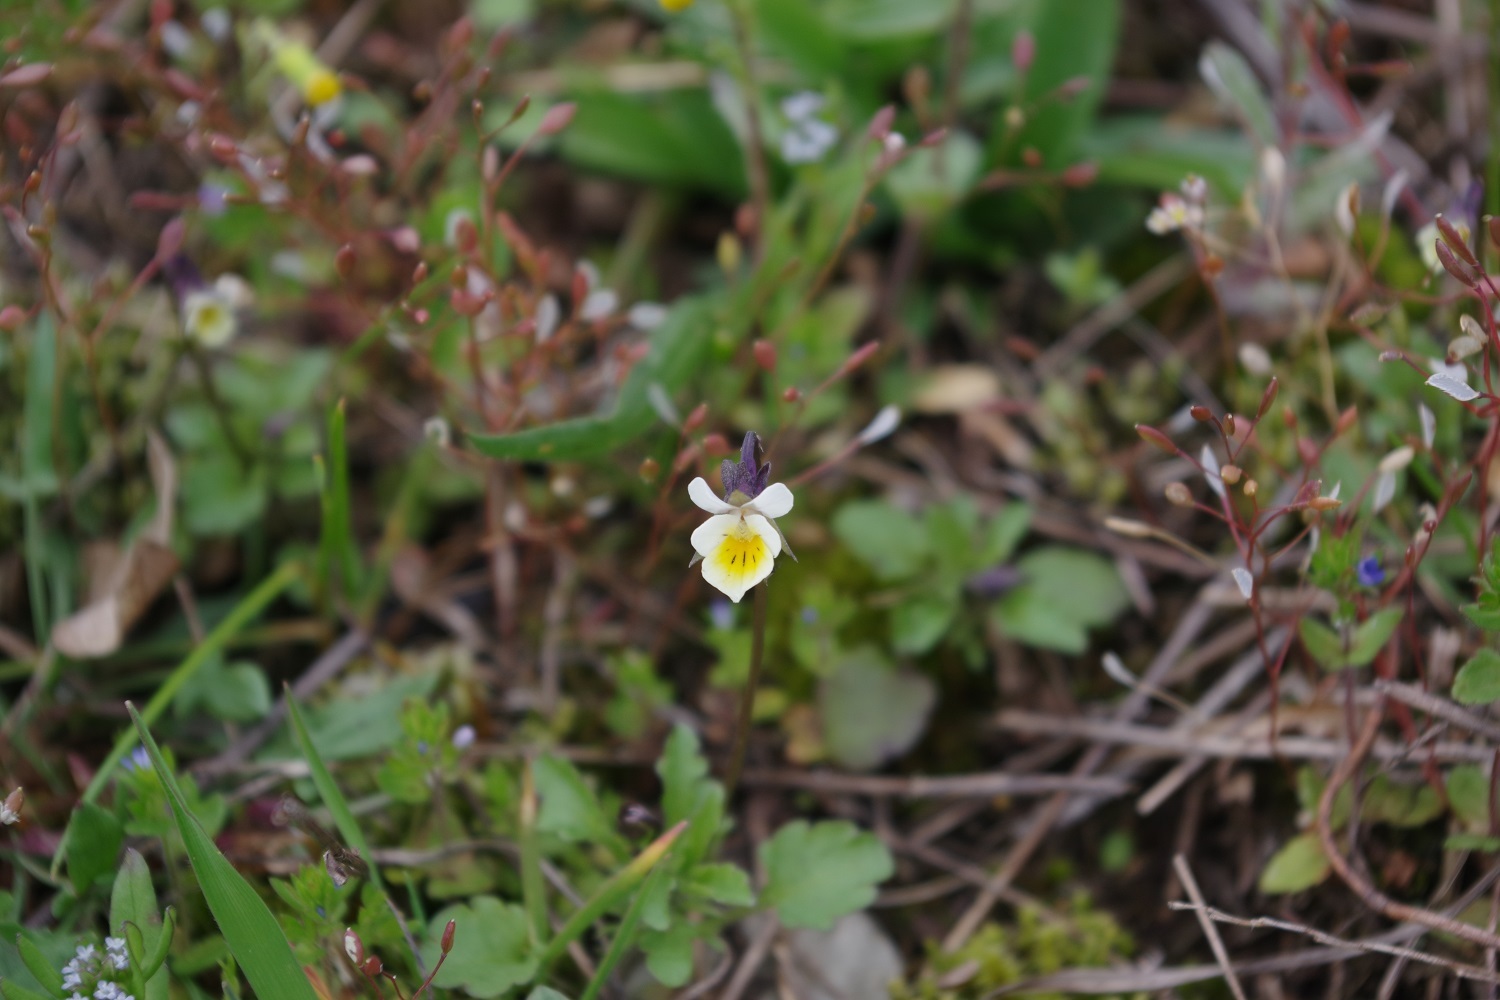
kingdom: Plantae
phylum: Tracheophyta
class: Magnoliopsida
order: Malpighiales
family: Violaceae
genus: Viola
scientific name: Viola arvensis
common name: Field pansy
